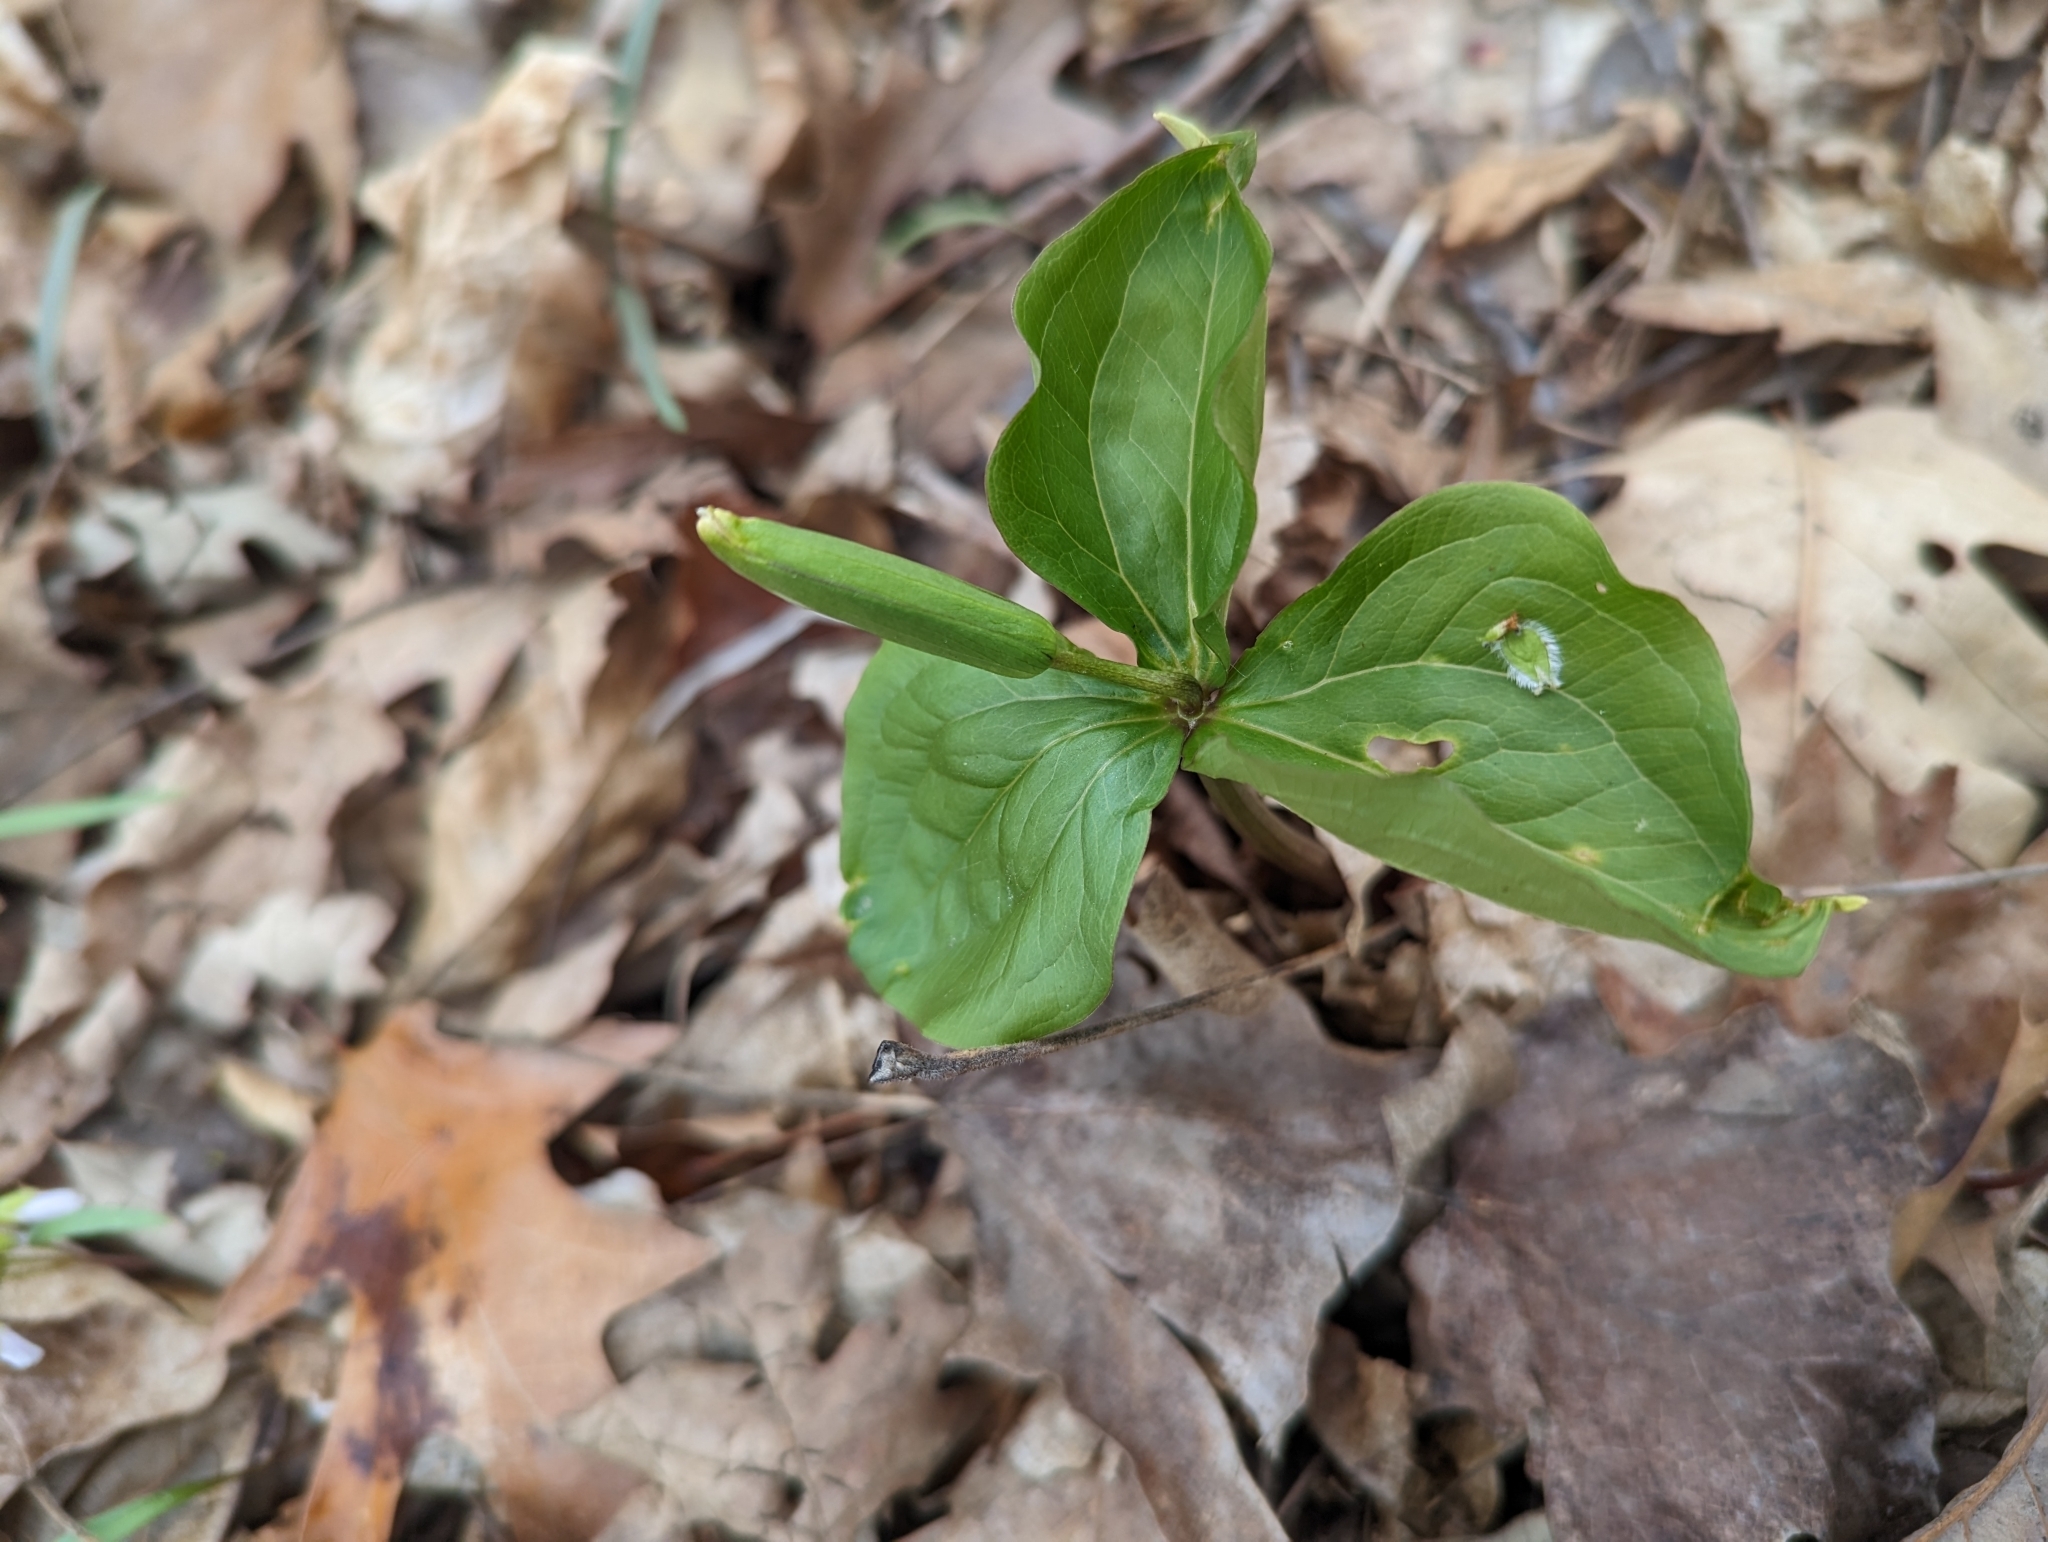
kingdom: Plantae
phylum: Tracheophyta
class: Liliopsida
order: Liliales
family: Melanthiaceae
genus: Trillium
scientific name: Trillium grandiflorum
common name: Great white trillium
